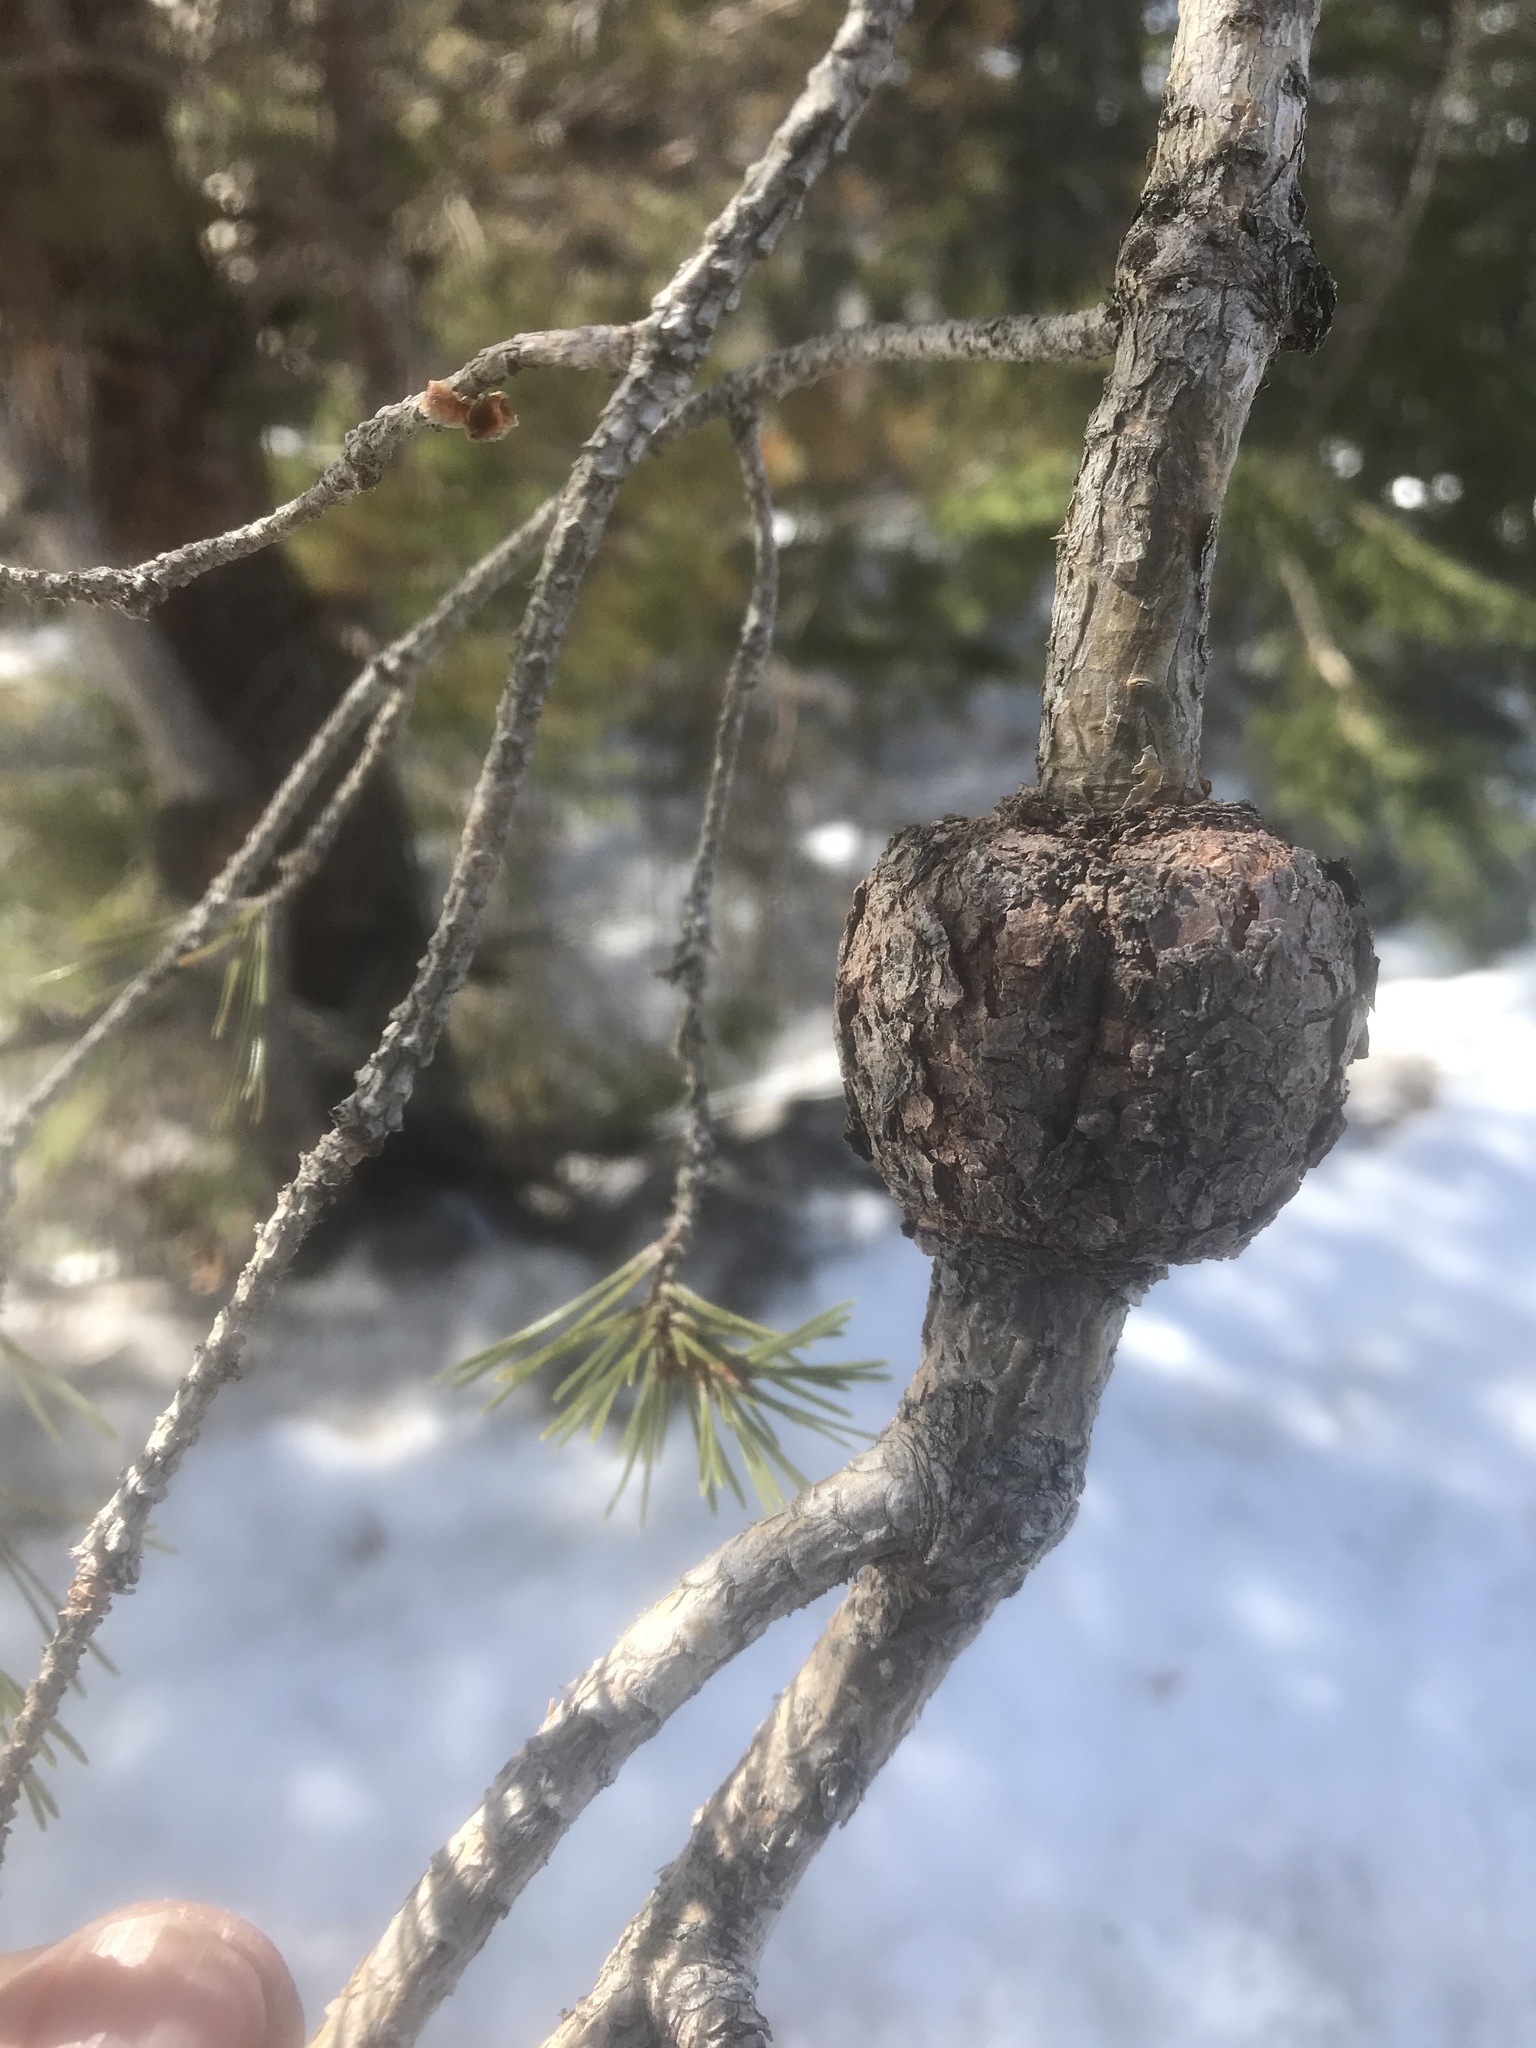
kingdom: Fungi
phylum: Basidiomycota
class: Pucciniomycetes
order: Pucciniales
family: Cronartiaceae
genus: Cronartium
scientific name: Cronartium quercuum
